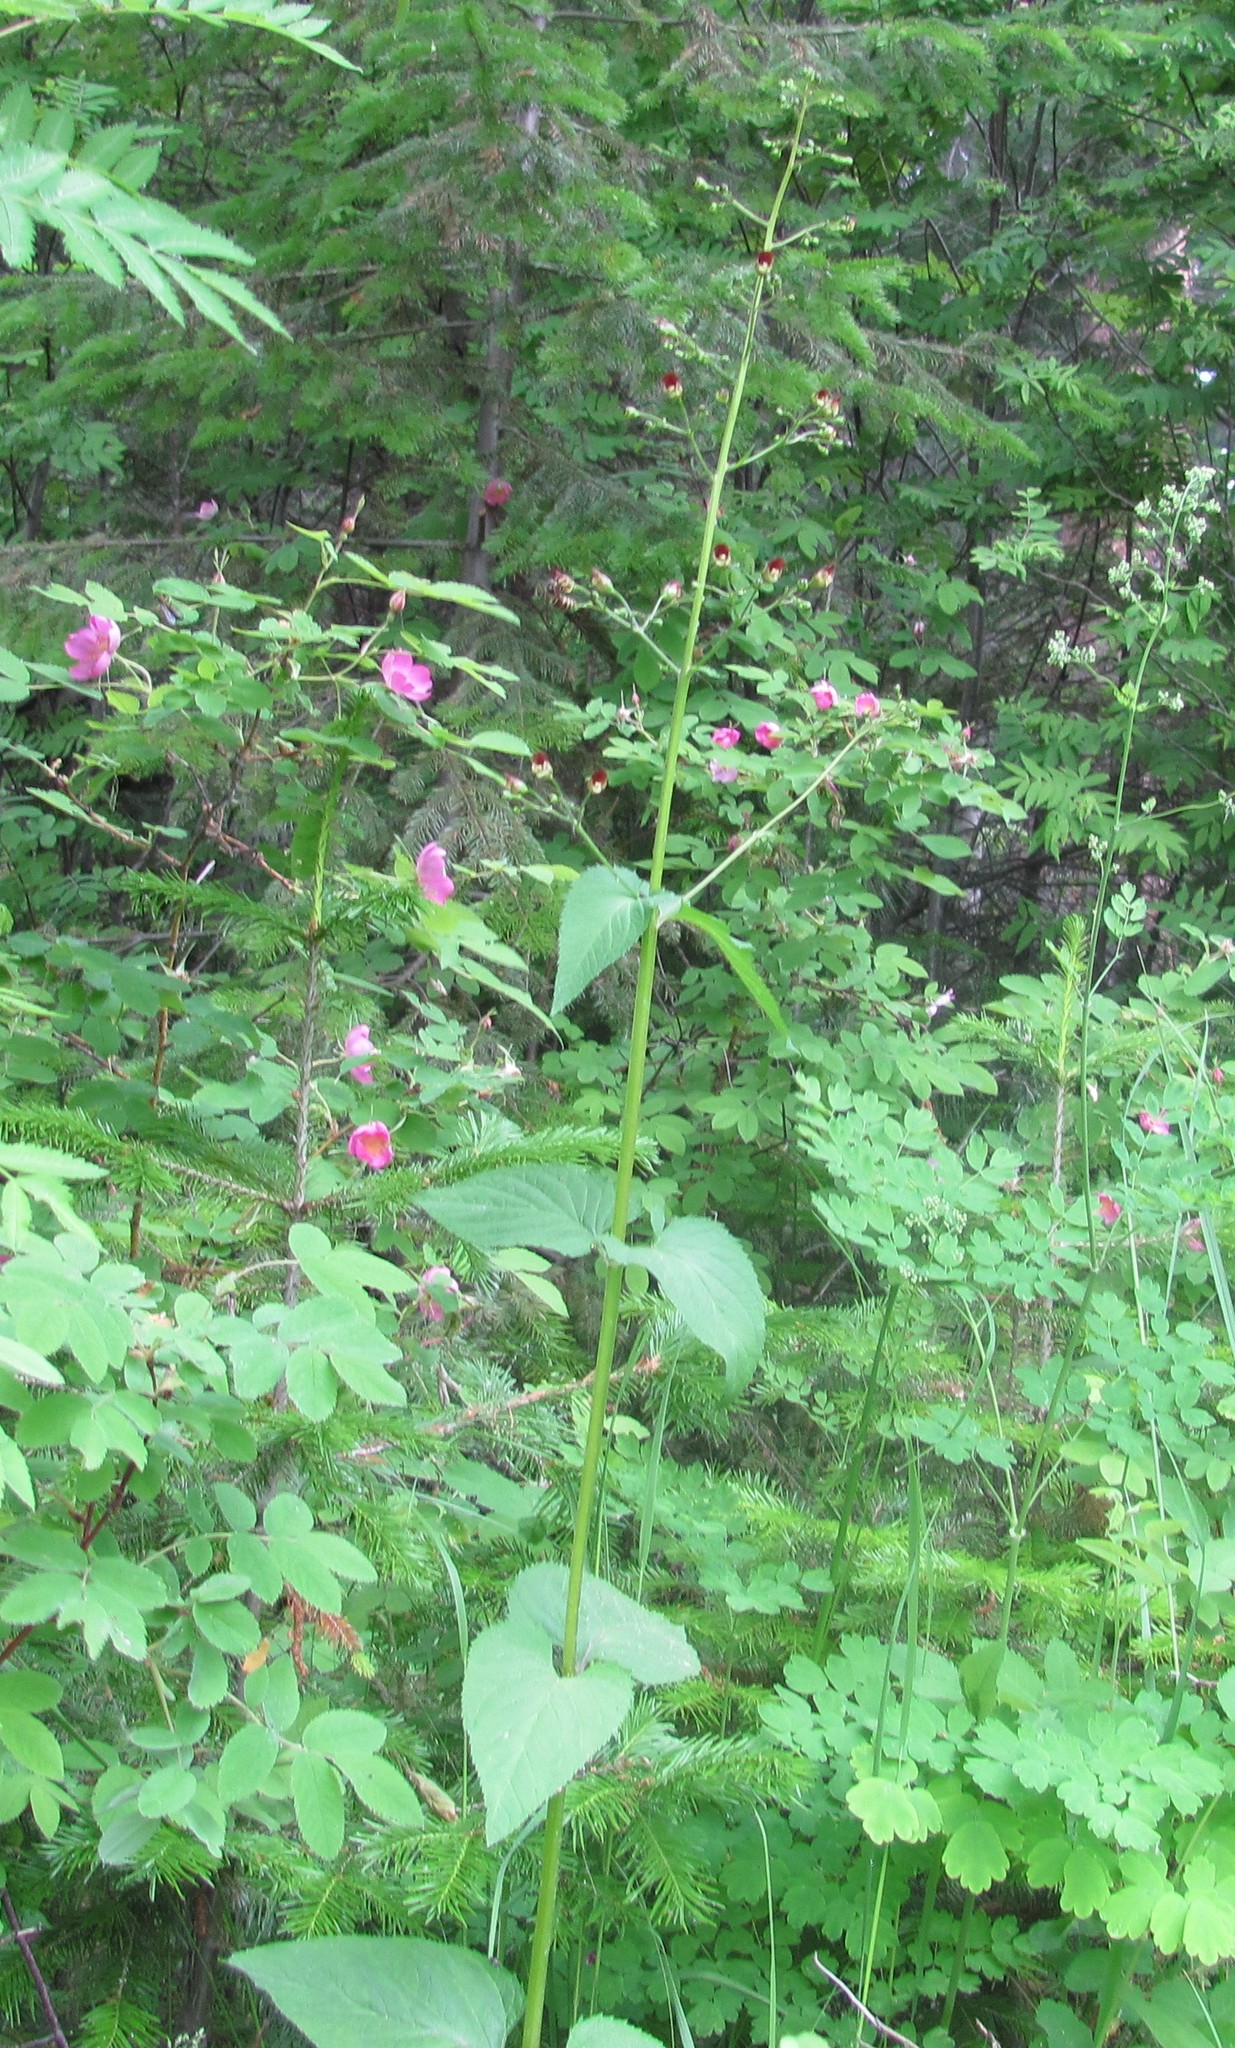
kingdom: Plantae
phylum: Tracheophyta
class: Magnoliopsida
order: Lamiales
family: Scrophulariaceae
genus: Scrophularia
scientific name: Scrophularia nodosa
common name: Common figwort
